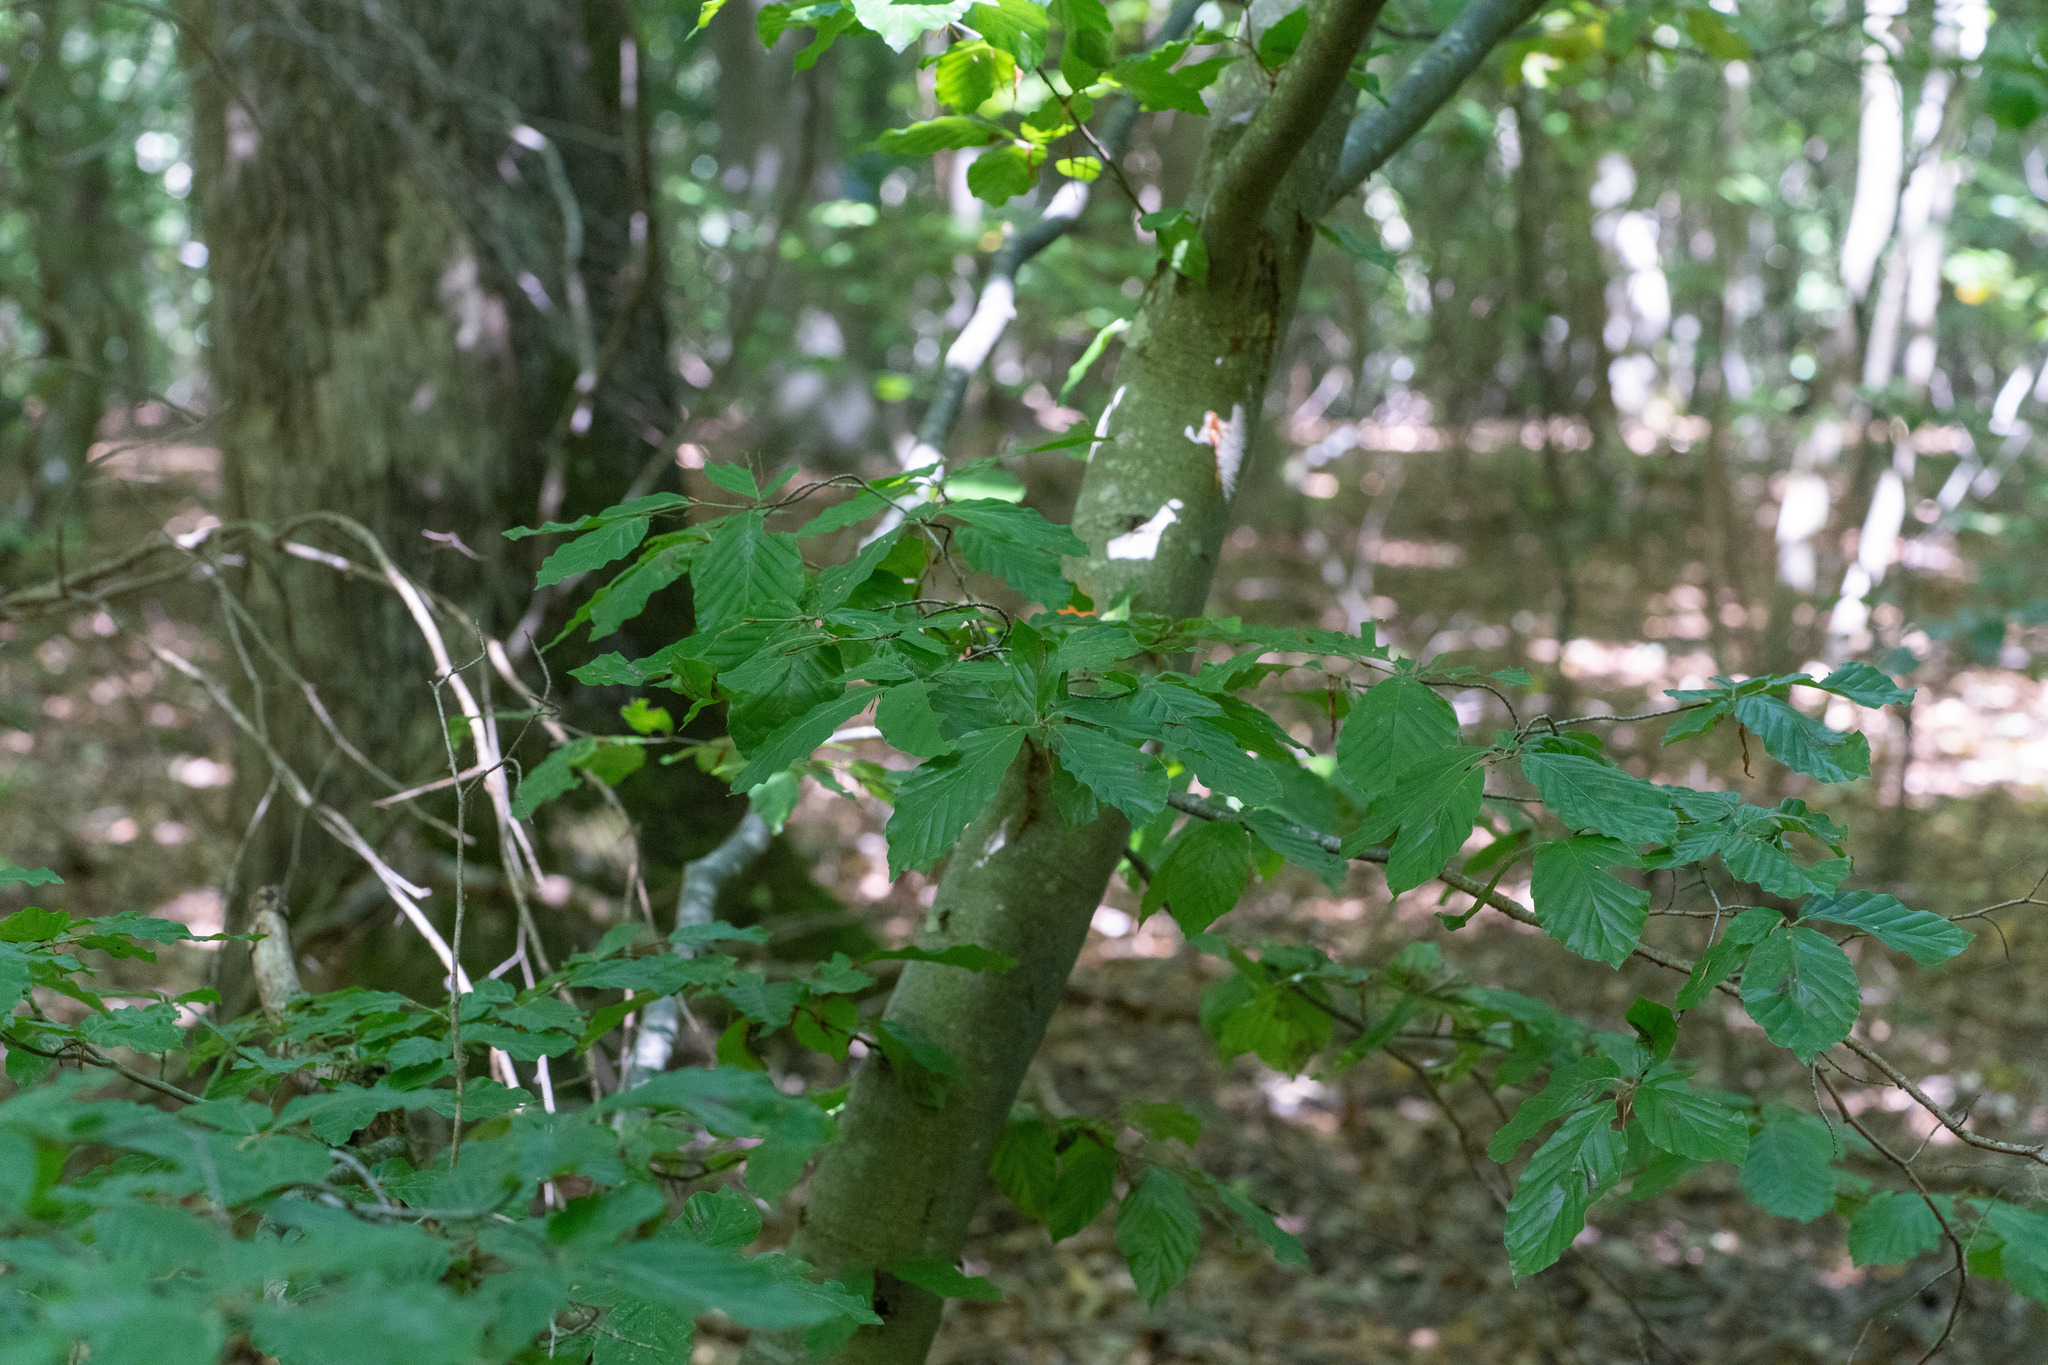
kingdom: Plantae
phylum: Tracheophyta
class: Magnoliopsida
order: Fagales
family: Fagaceae
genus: Fagus
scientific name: Fagus sylvatica
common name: Beech
